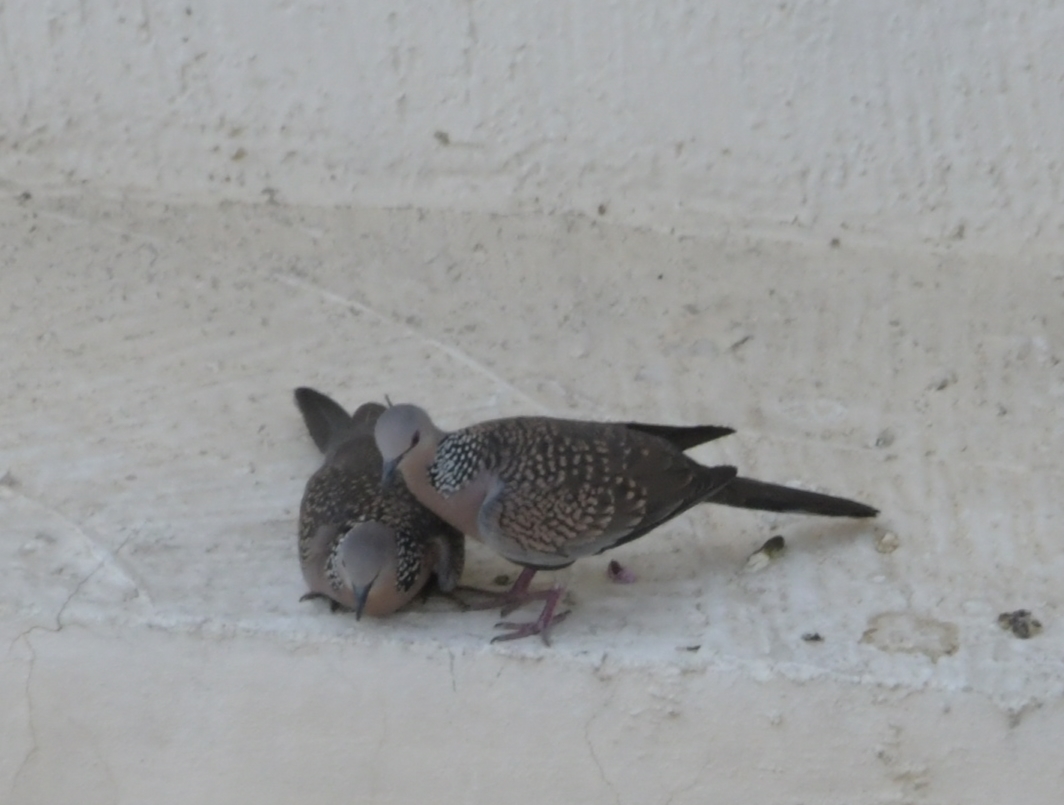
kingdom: Animalia
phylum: Chordata
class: Aves
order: Columbiformes
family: Columbidae
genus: Spilopelia
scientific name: Spilopelia chinensis
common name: Spotted dove
